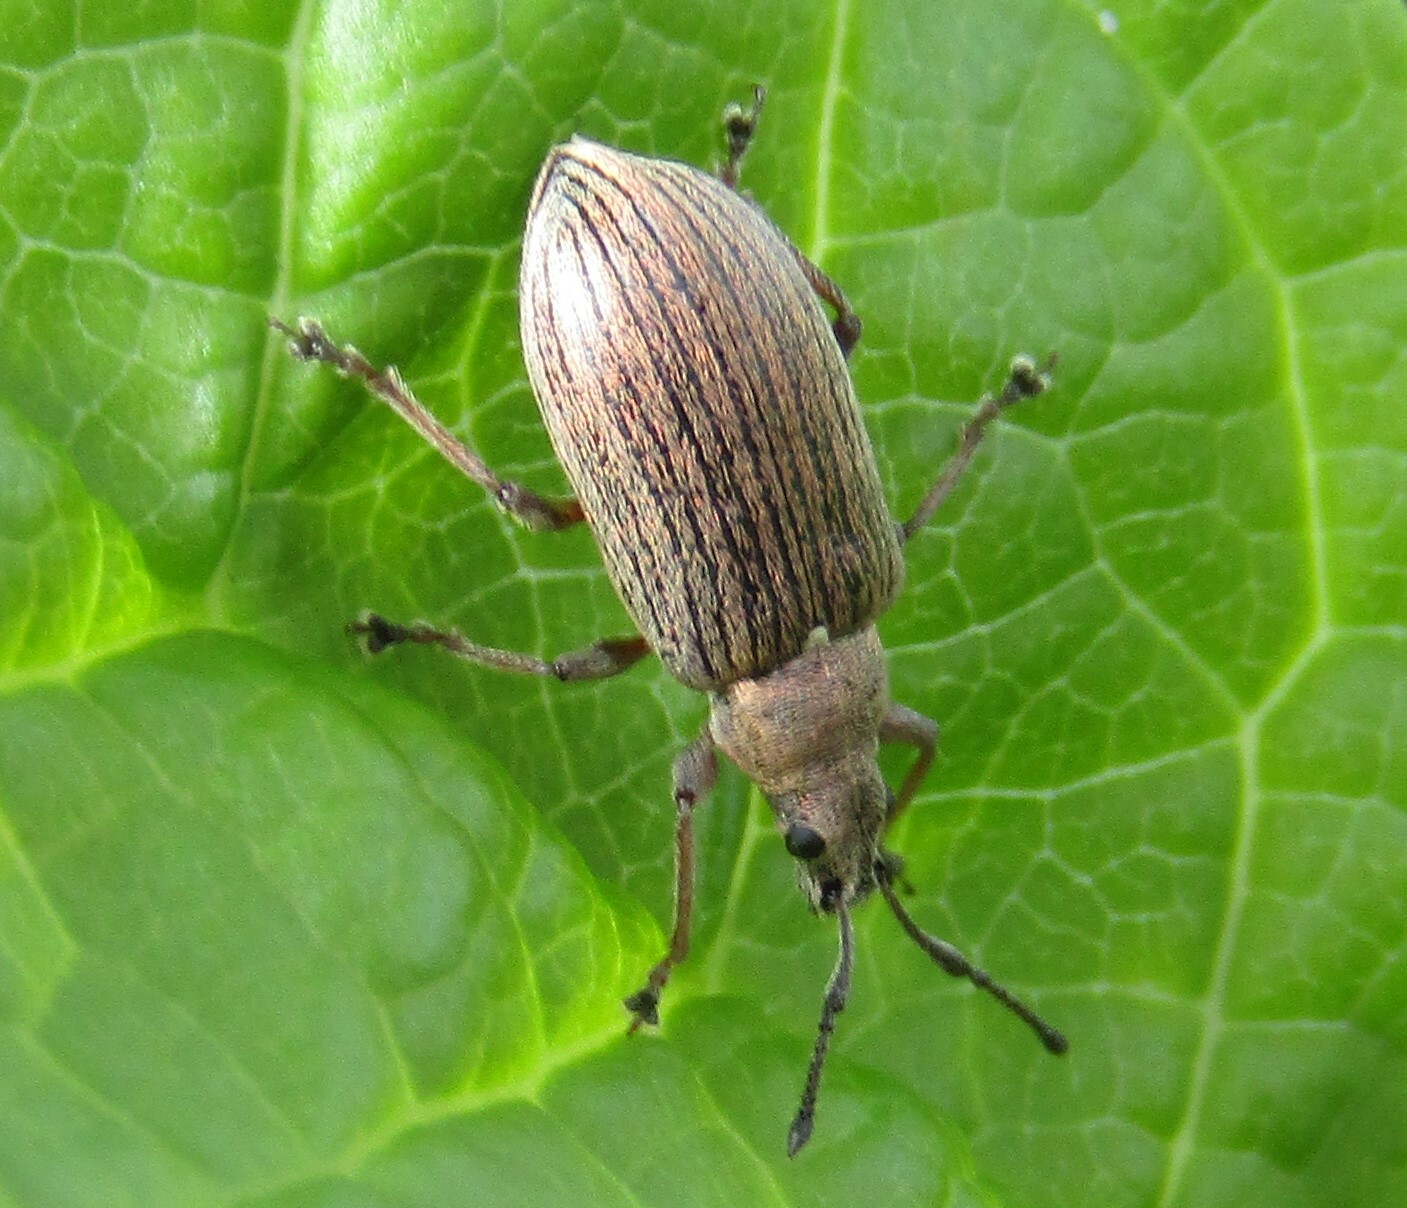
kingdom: Animalia
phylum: Arthropoda
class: Insecta
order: Coleoptera
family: Curculionidae
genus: Phyllobius
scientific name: Phyllobius pyri
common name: Common leaf weevil
